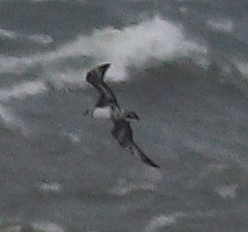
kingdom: Animalia
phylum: Chordata
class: Aves
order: Charadriiformes
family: Stercorariidae
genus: Stercorarius
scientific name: Stercorarius pomarinus
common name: Pomarine jaeger
